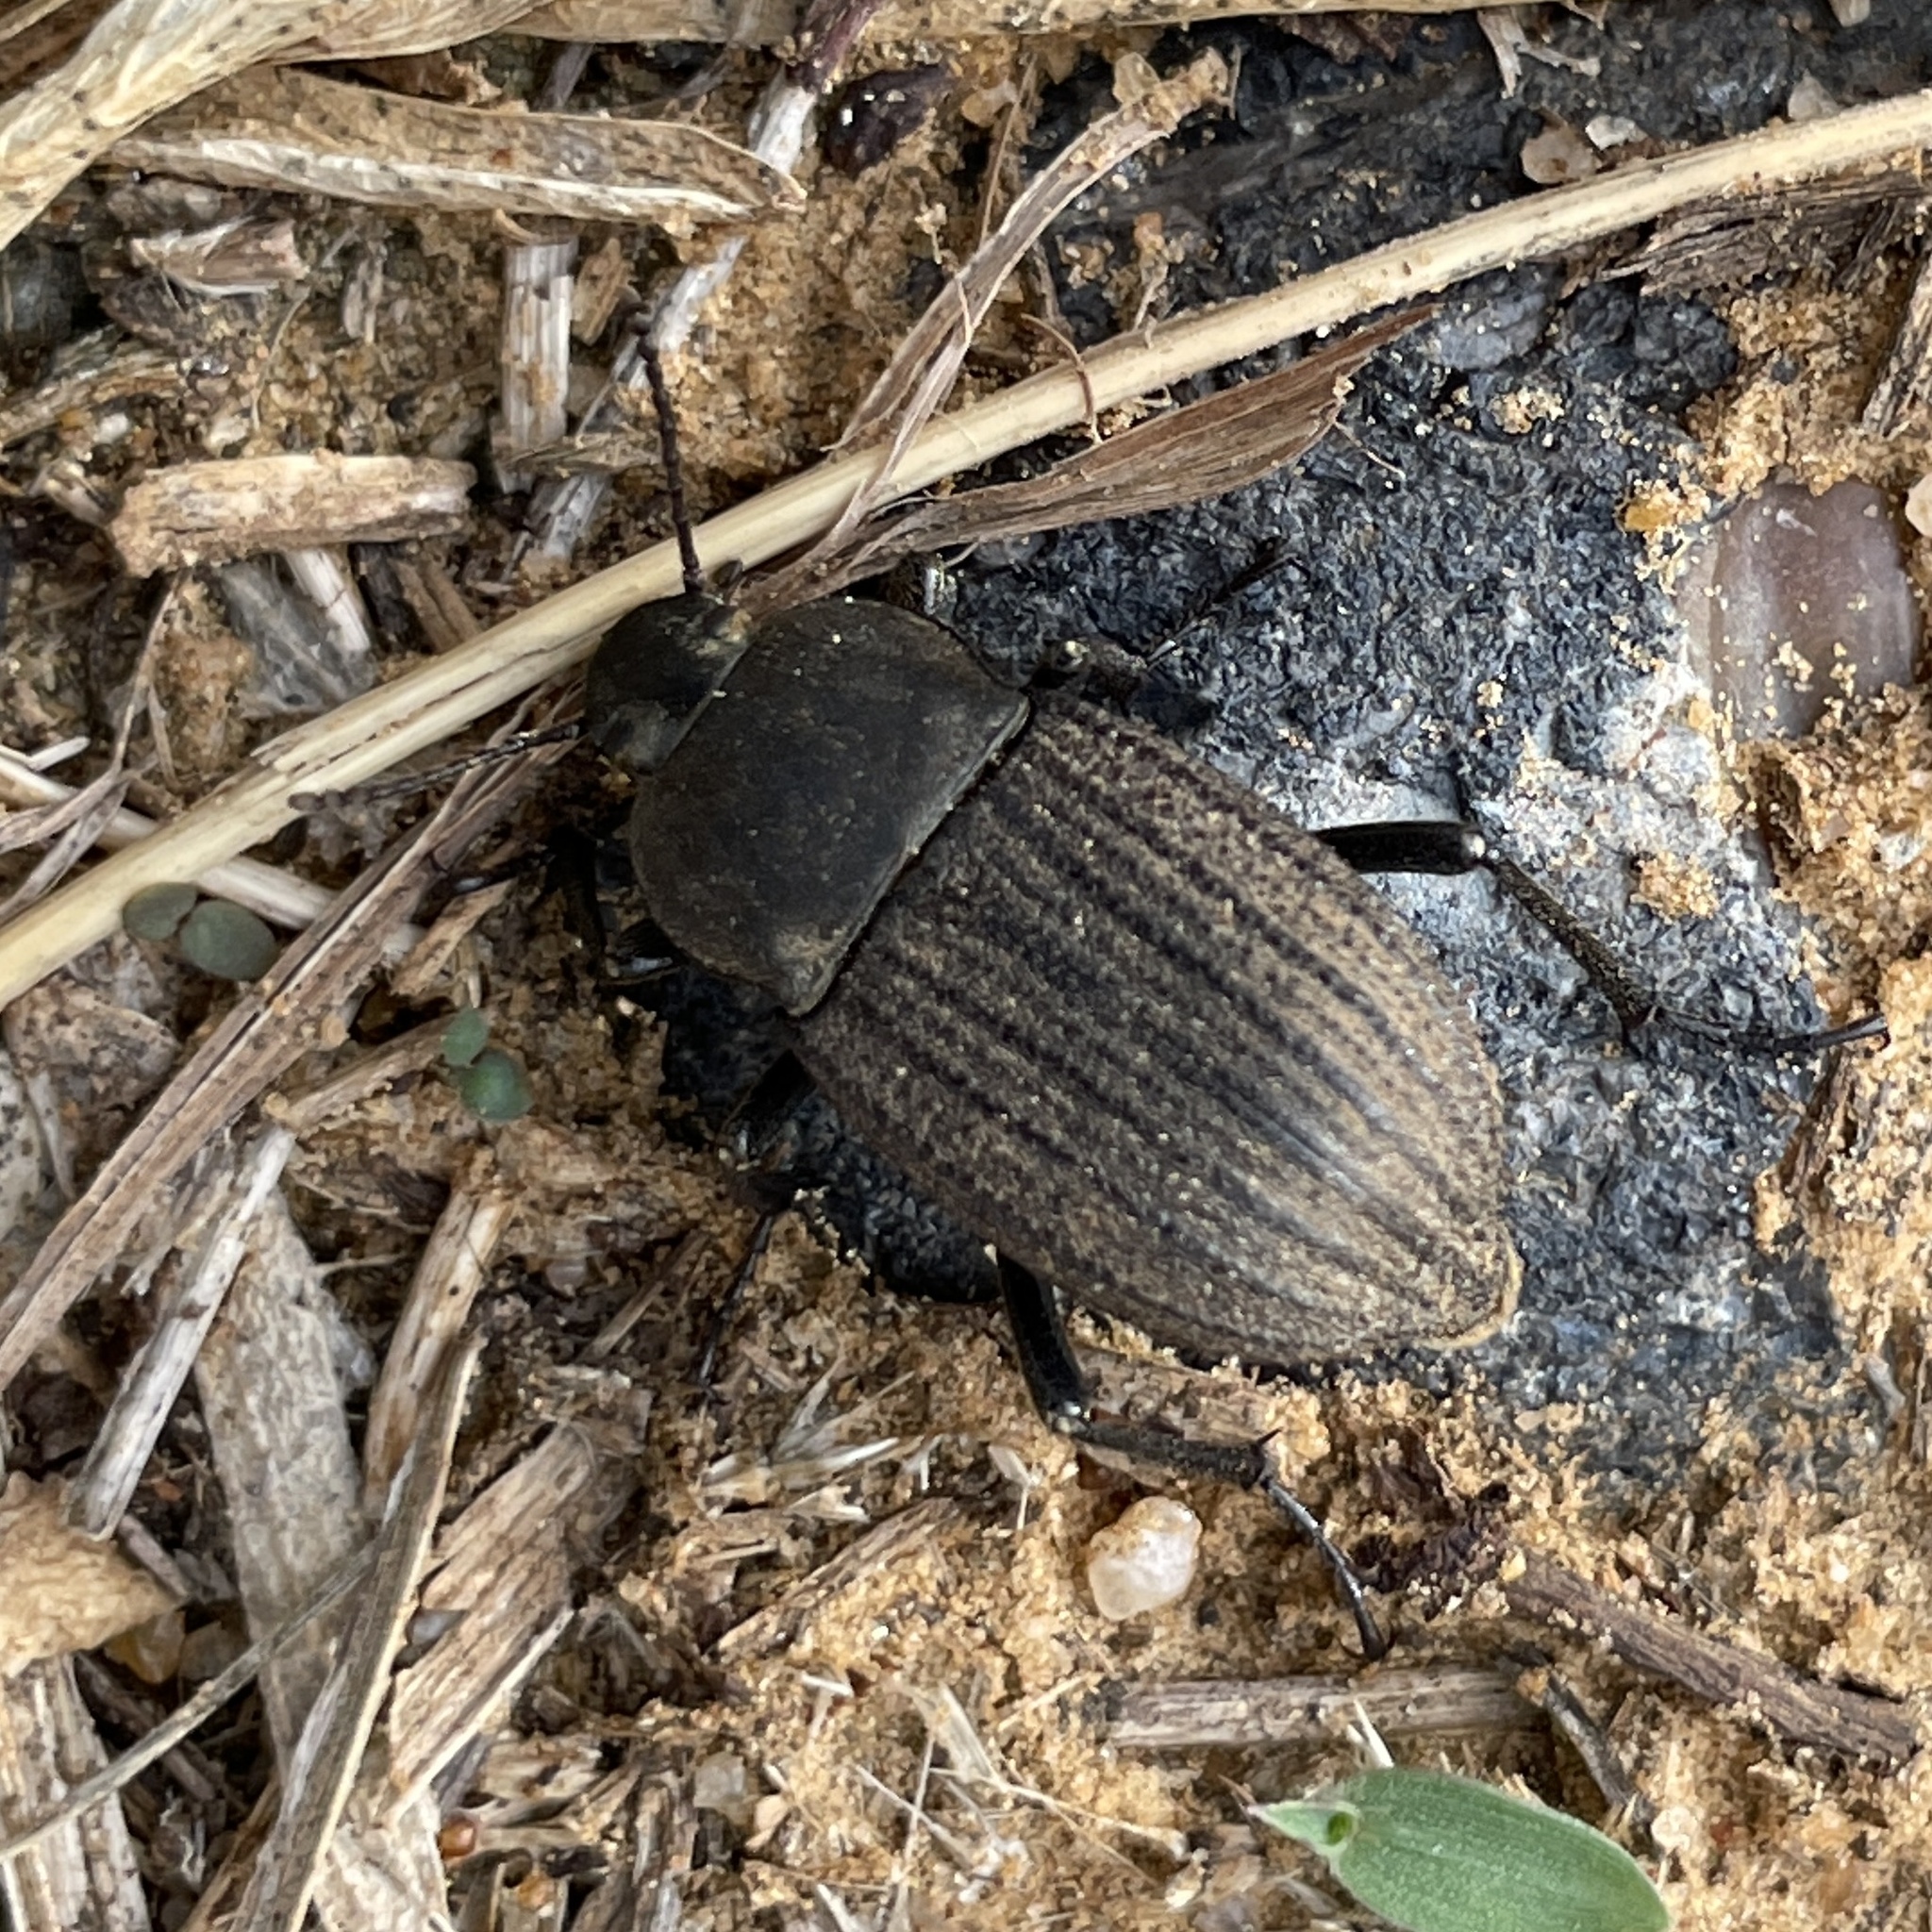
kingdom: Animalia
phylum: Arthropoda
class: Insecta
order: Coleoptera
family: Tenebrionidae
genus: Eleodes
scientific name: Eleodes tricostata
